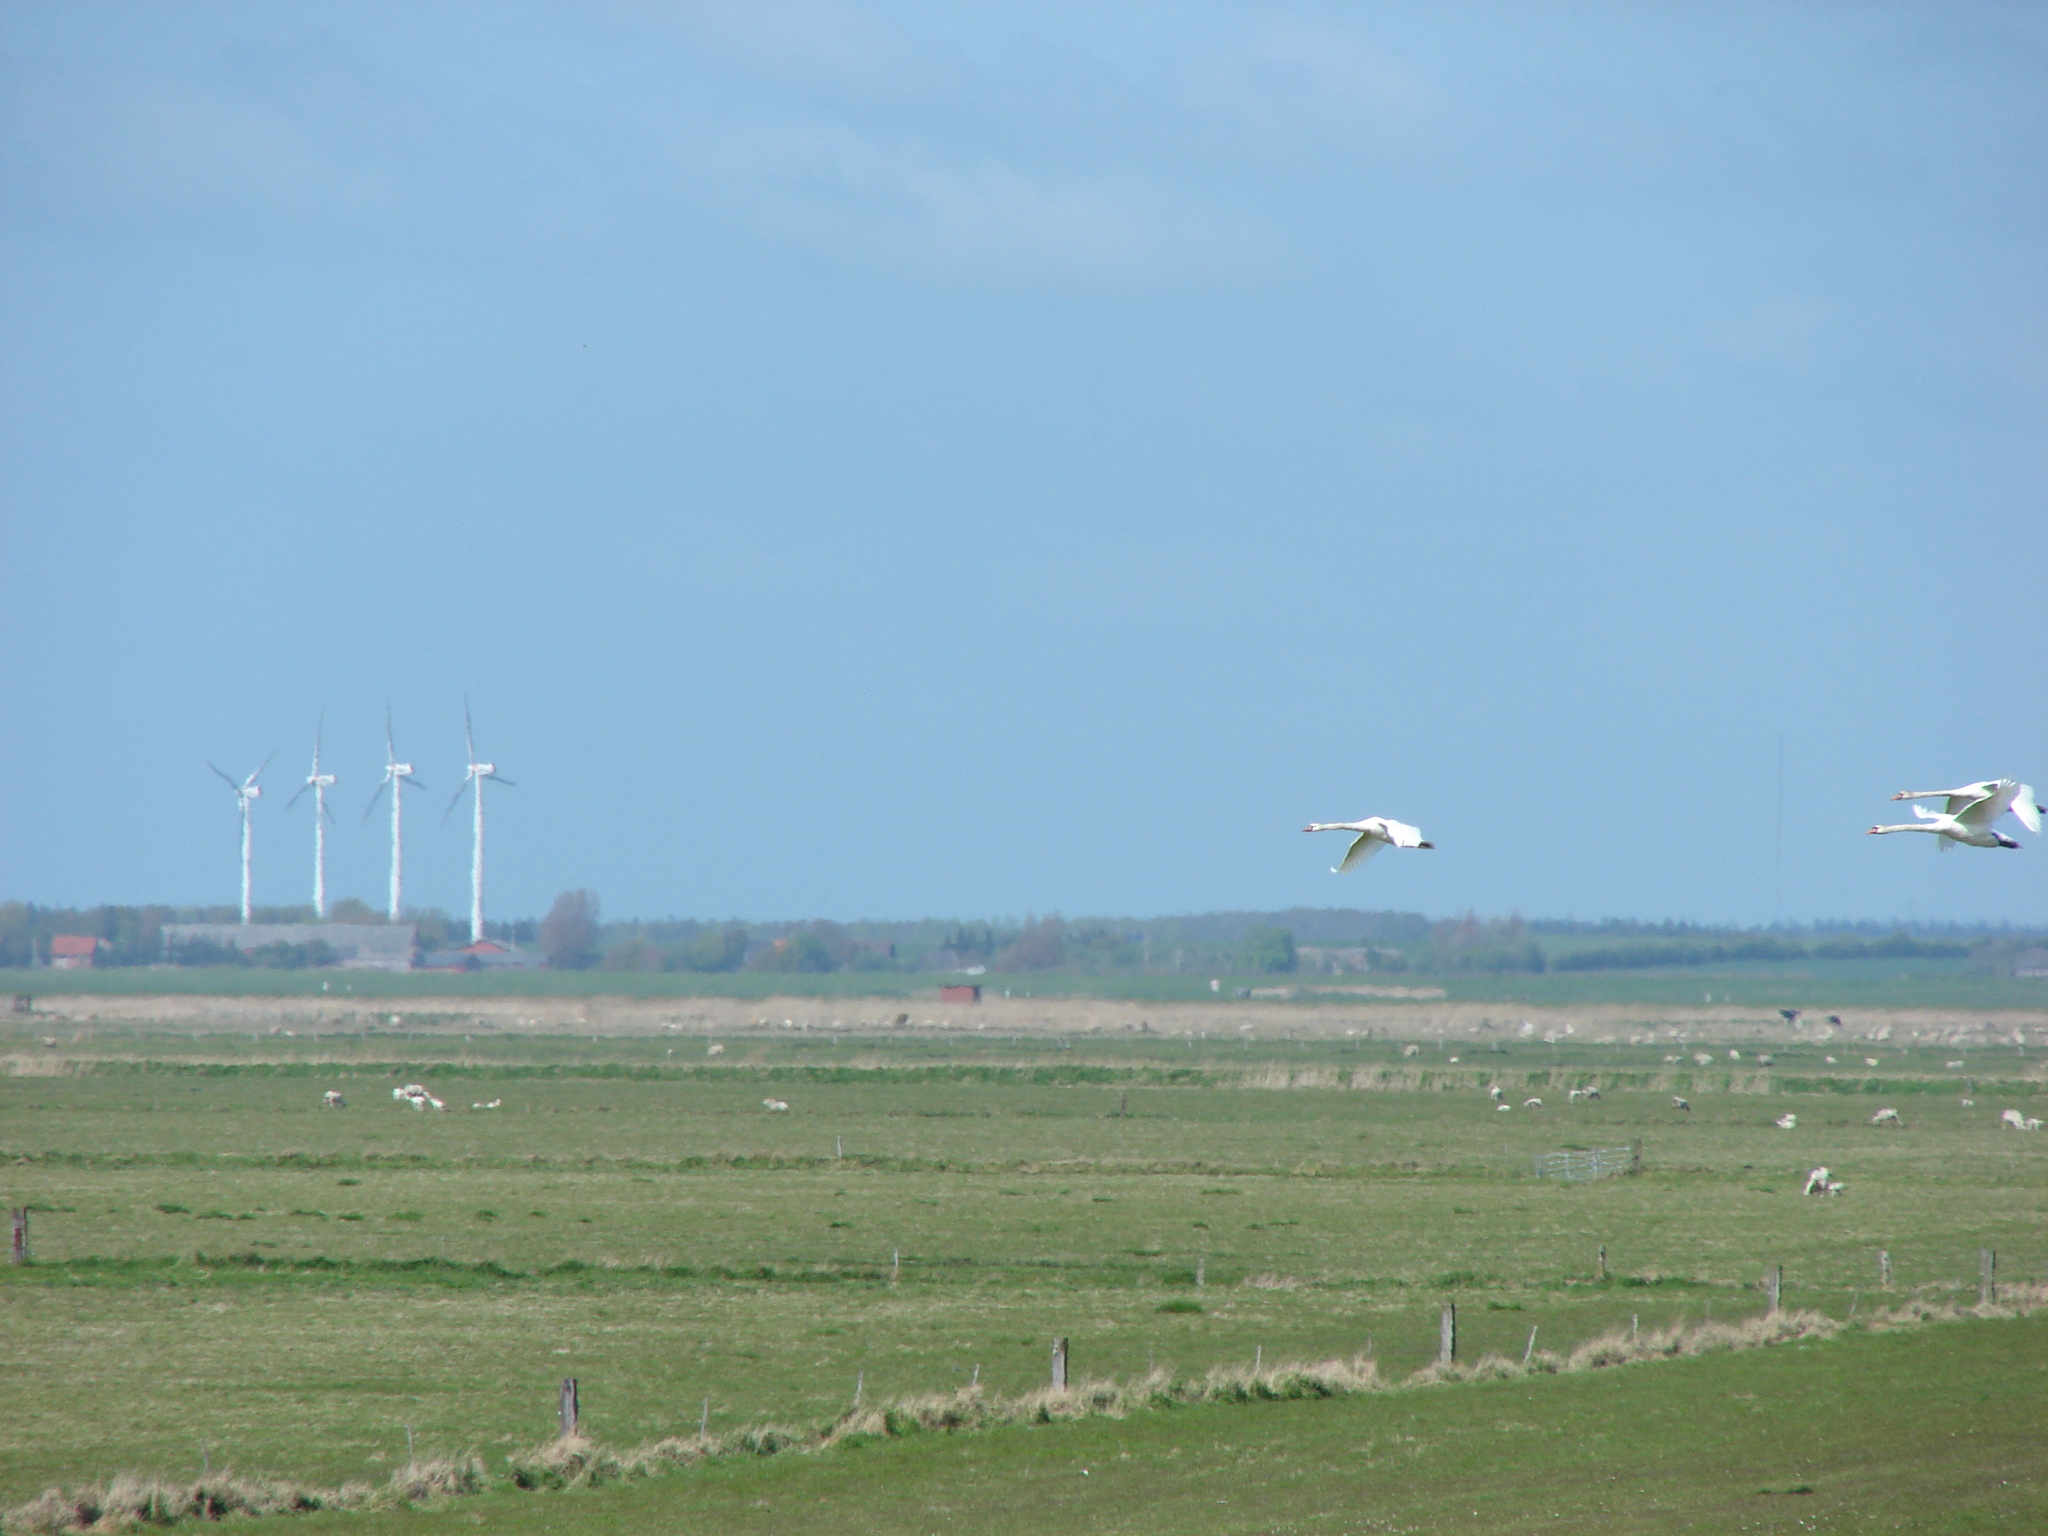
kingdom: Animalia
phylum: Chordata
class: Aves
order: Anseriformes
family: Anatidae
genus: Cygnus
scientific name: Cygnus olor
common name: Mute swan
